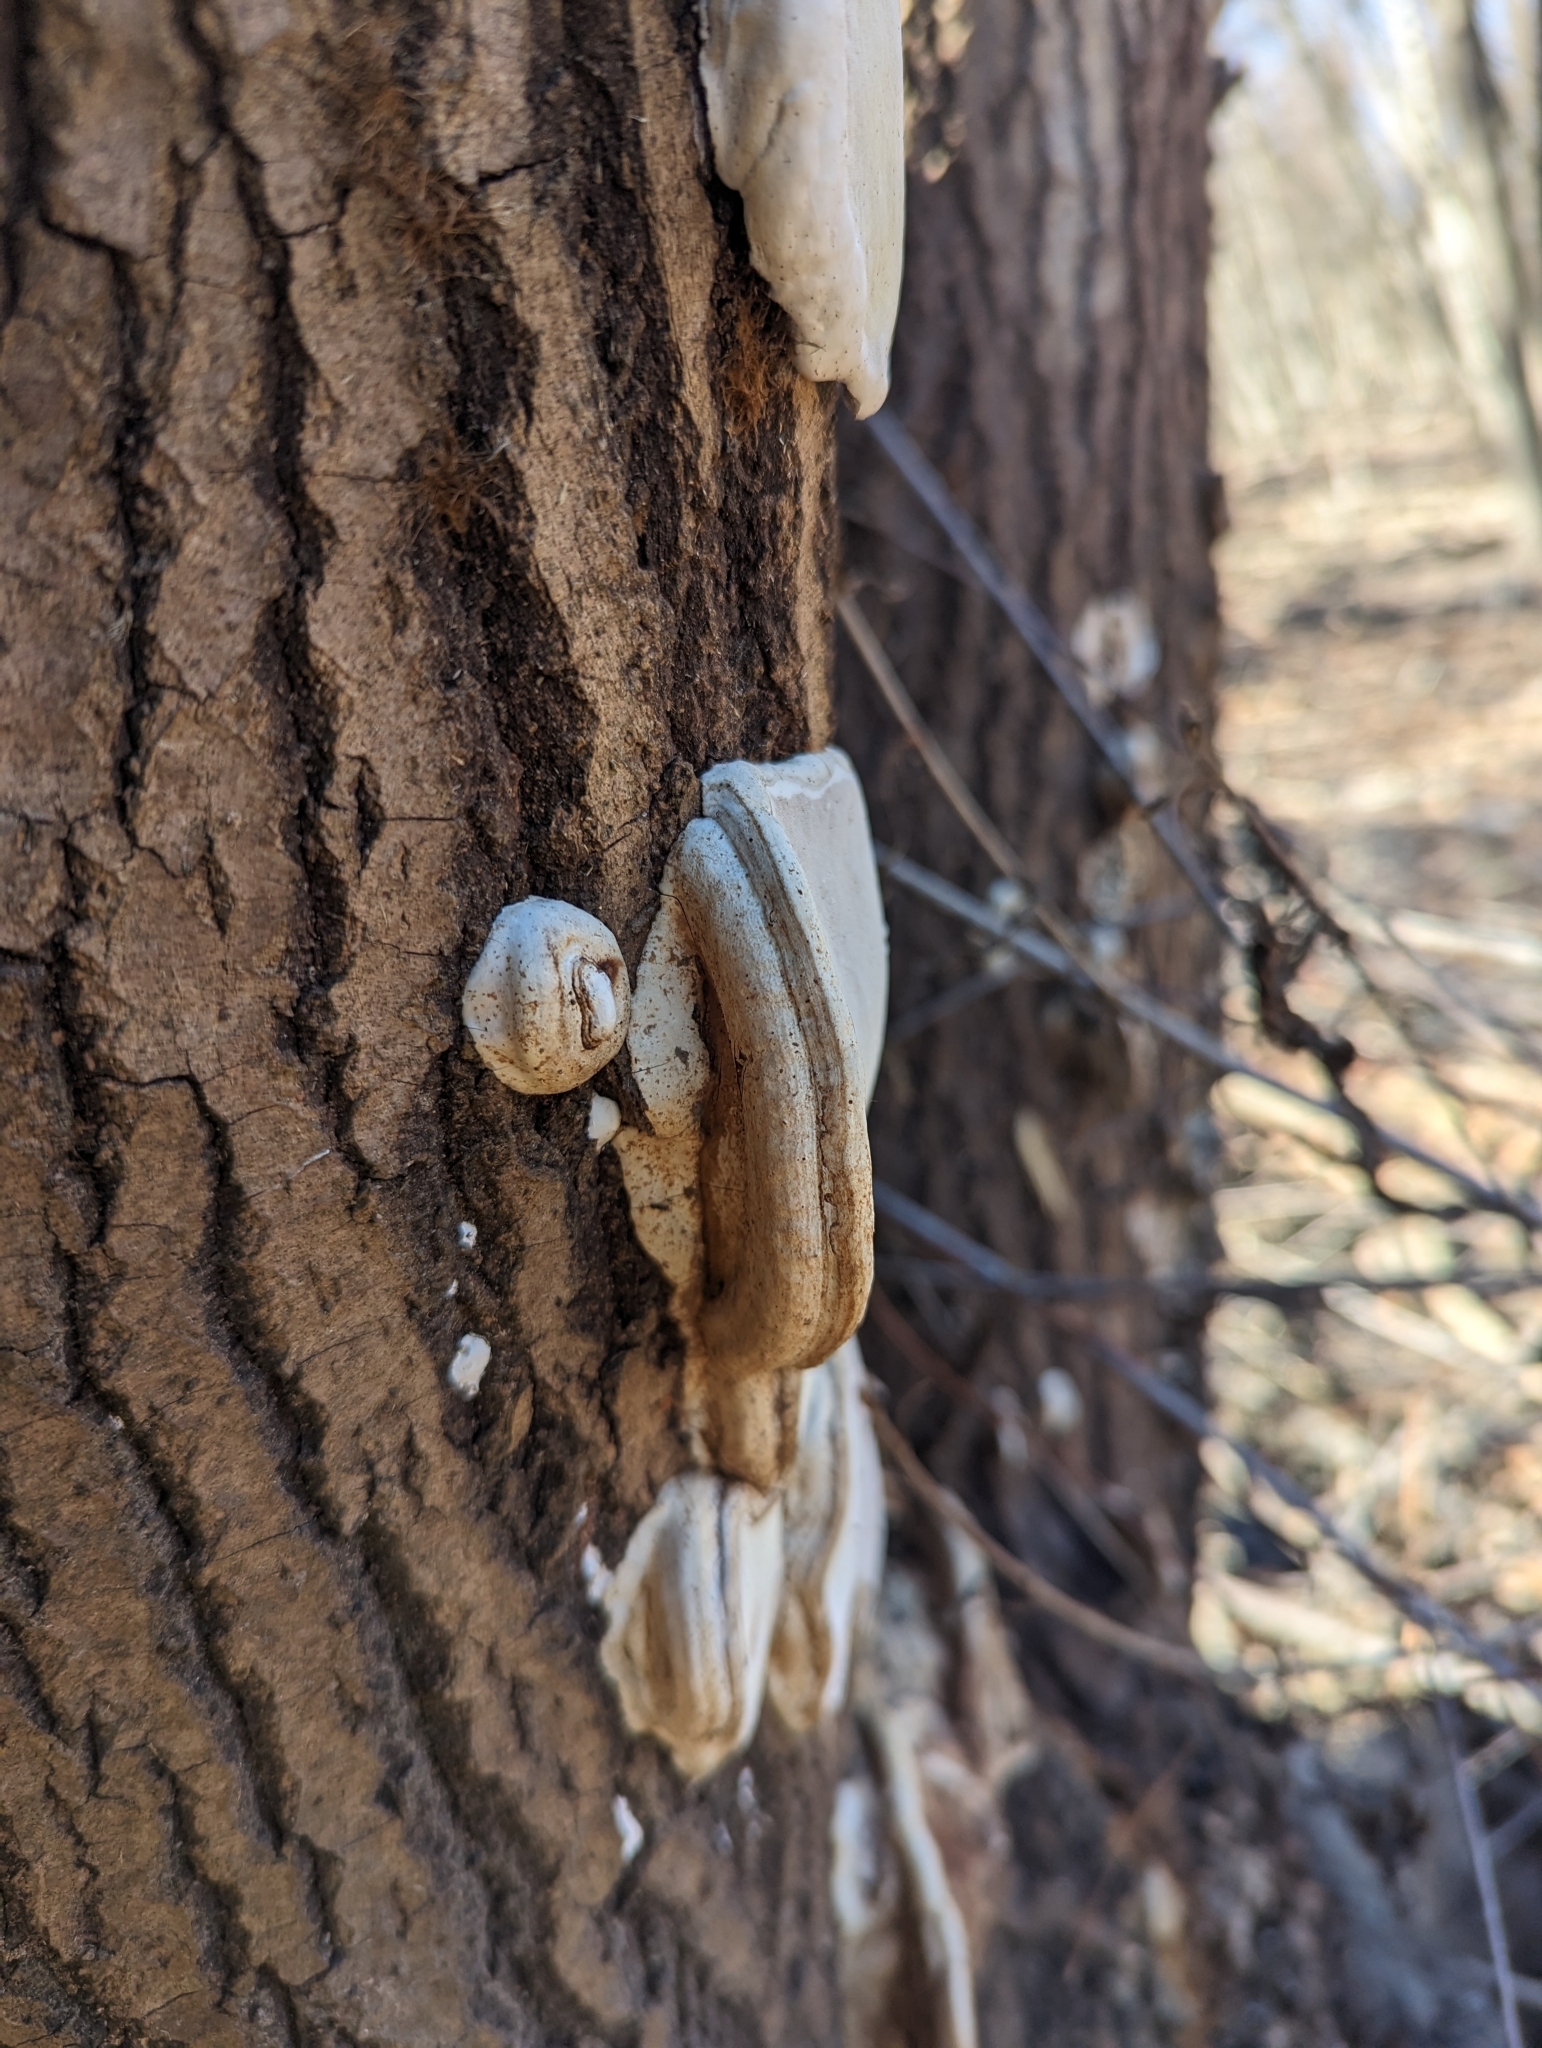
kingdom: Fungi
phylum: Basidiomycota
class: Agaricomycetes
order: Polyporales
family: Polyporaceae
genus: Ganoderma
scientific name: Ganoderma lobatum
